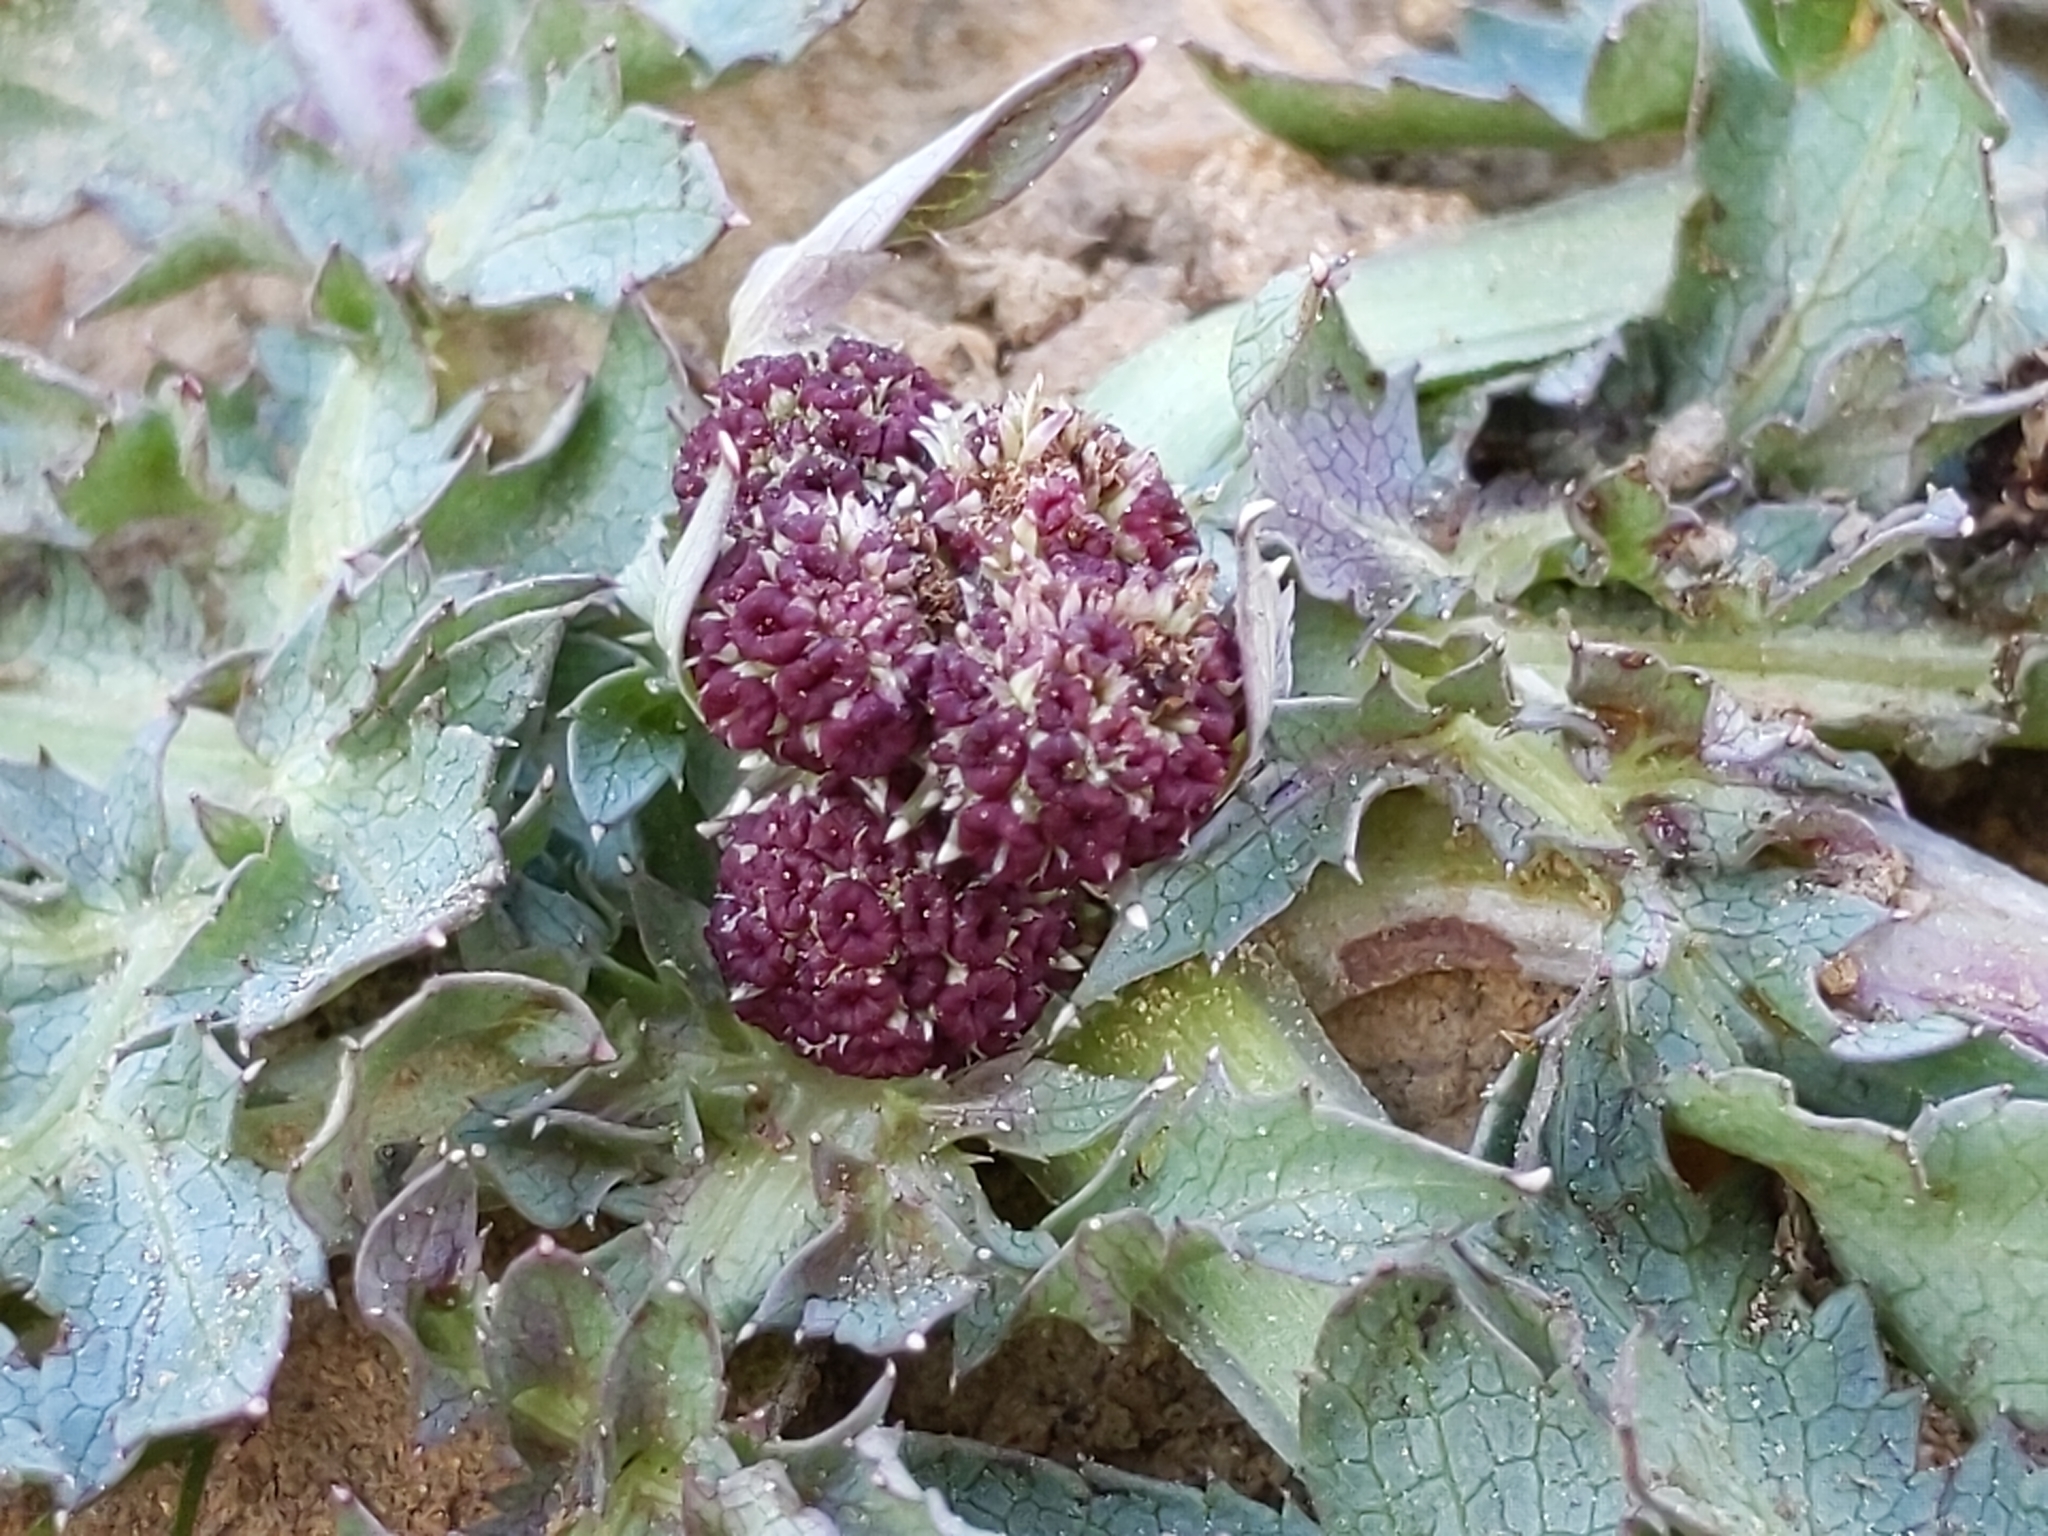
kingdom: Plantae
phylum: Tracheophyta
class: Magnoliopsida
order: Apiales
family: Apiaceae
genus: Sanicula
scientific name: Sanicula bipinnatifida
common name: Shoe-buttons
